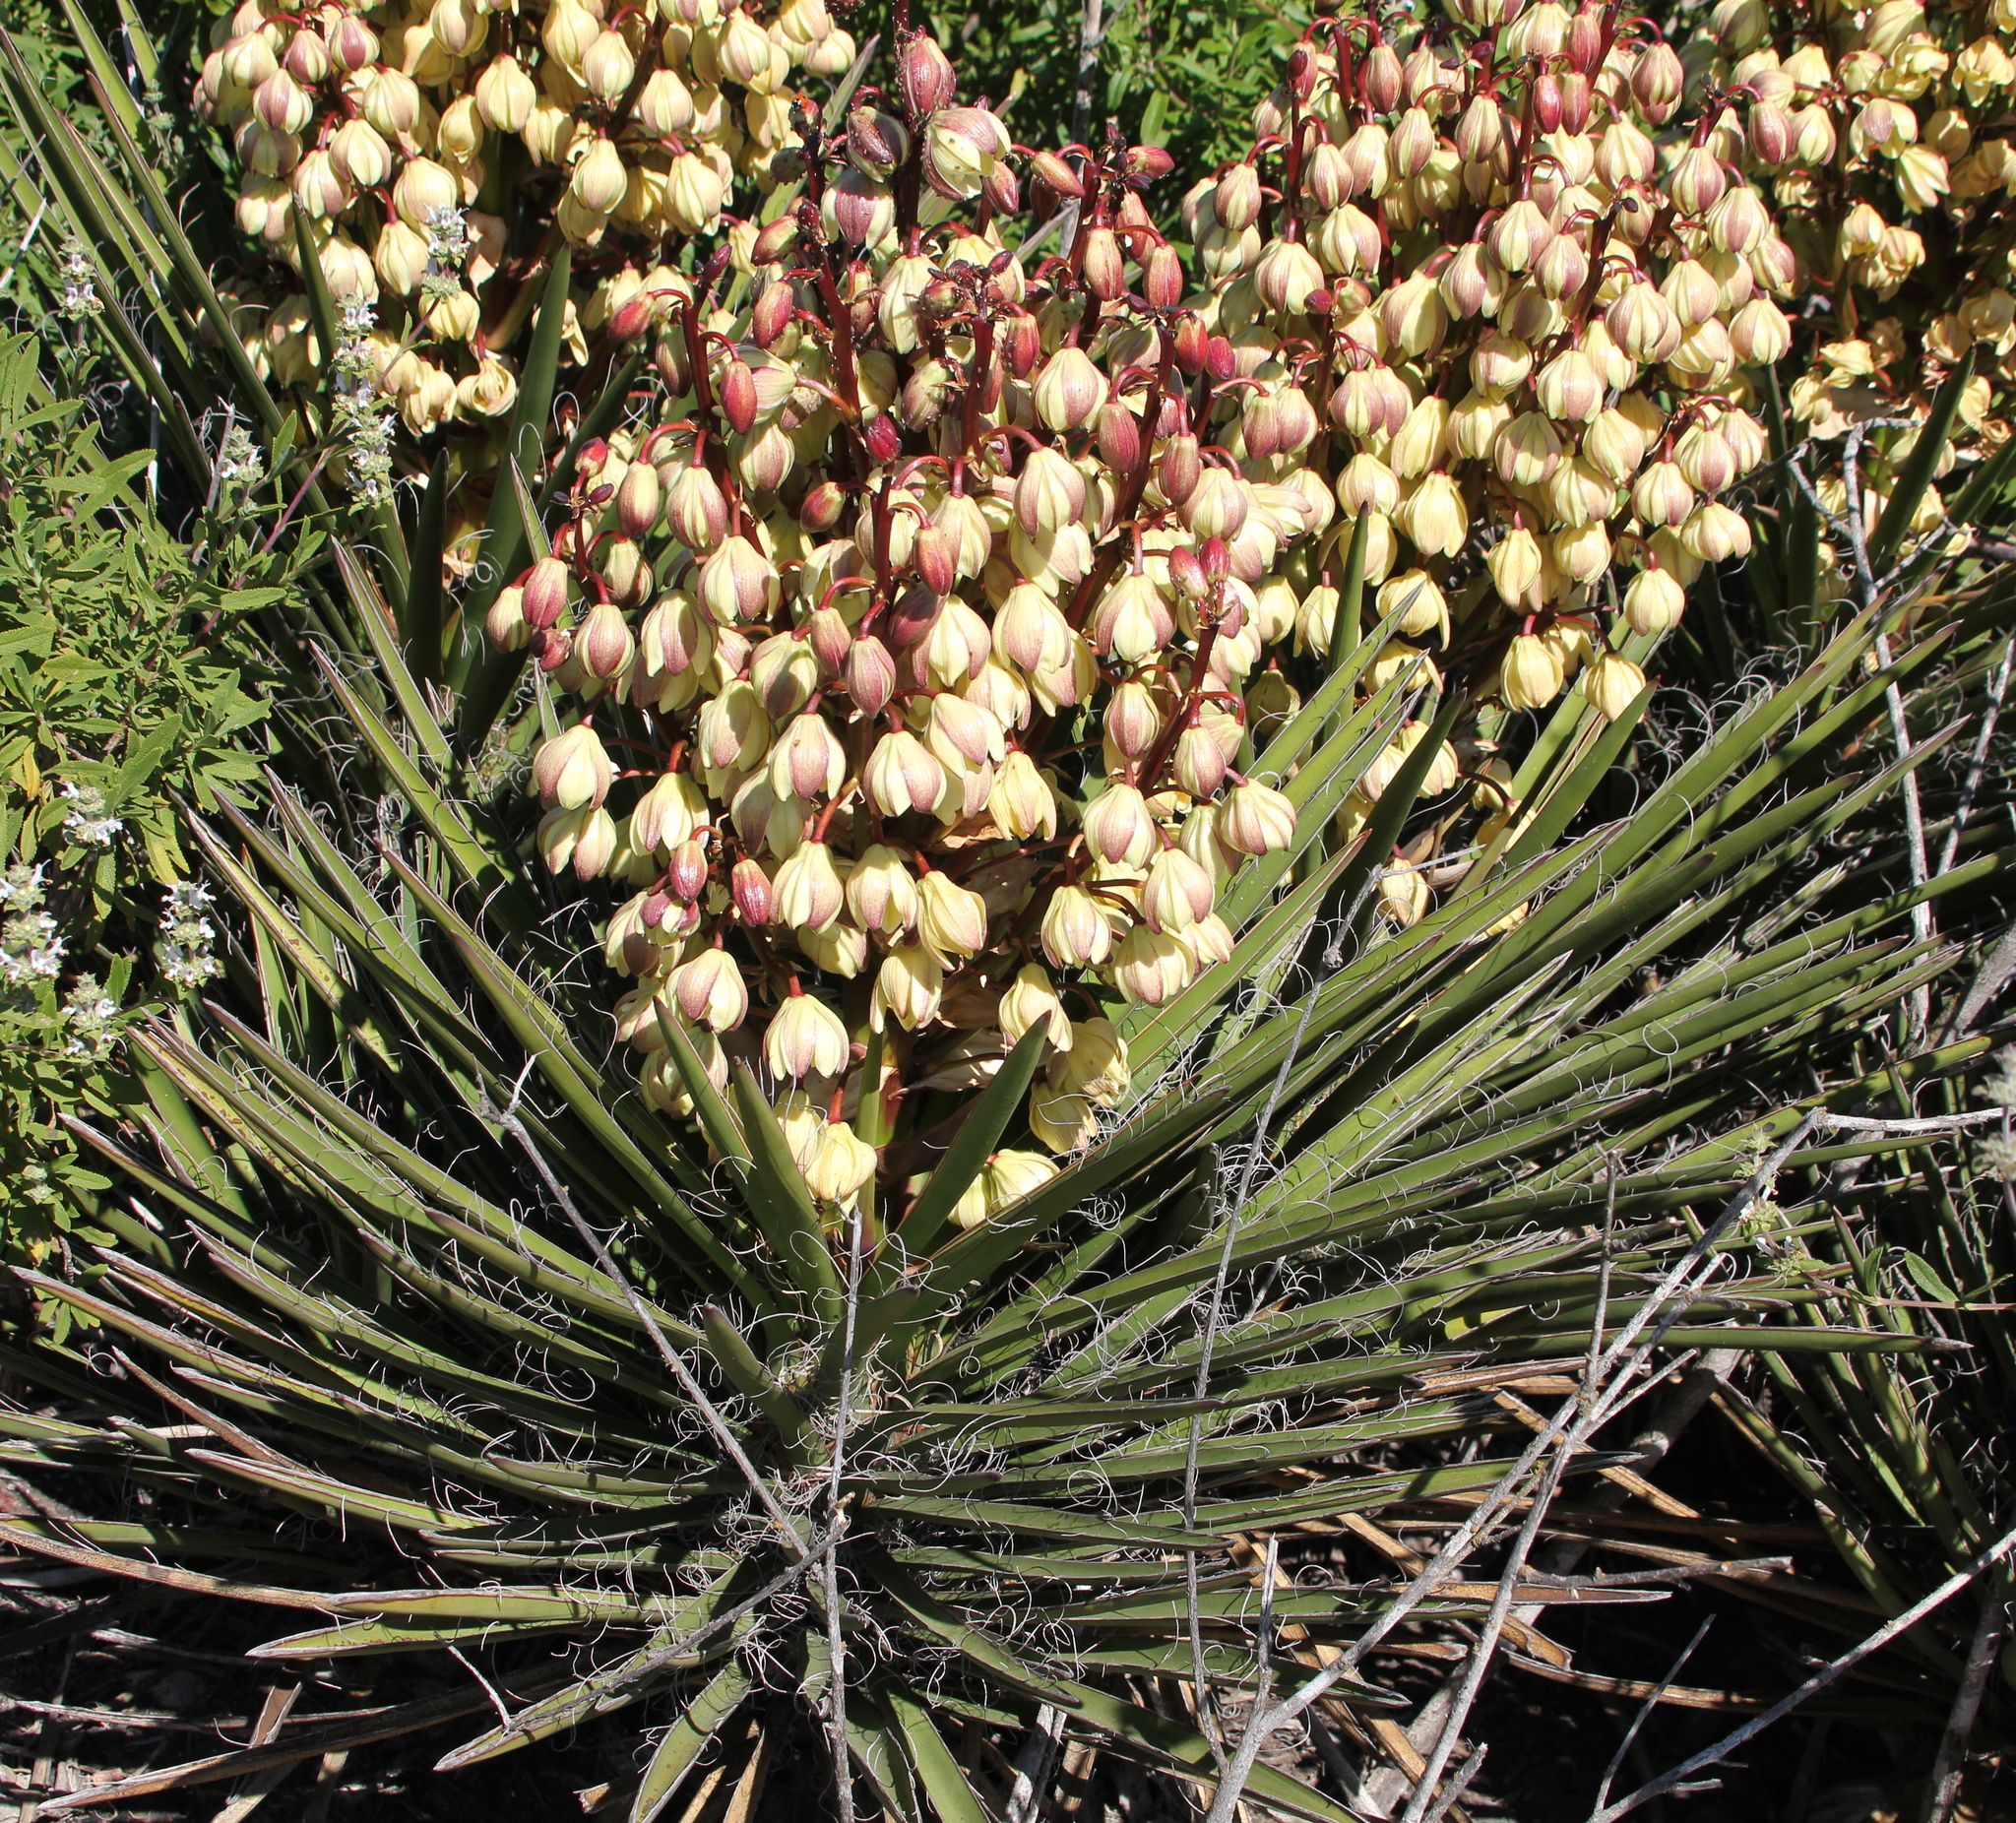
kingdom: Plantae
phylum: Tracheophyta
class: Liliopsida
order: Asparagales
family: Asparagaceae
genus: Yucca
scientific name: Yucca schidigera
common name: Mojave yucca
